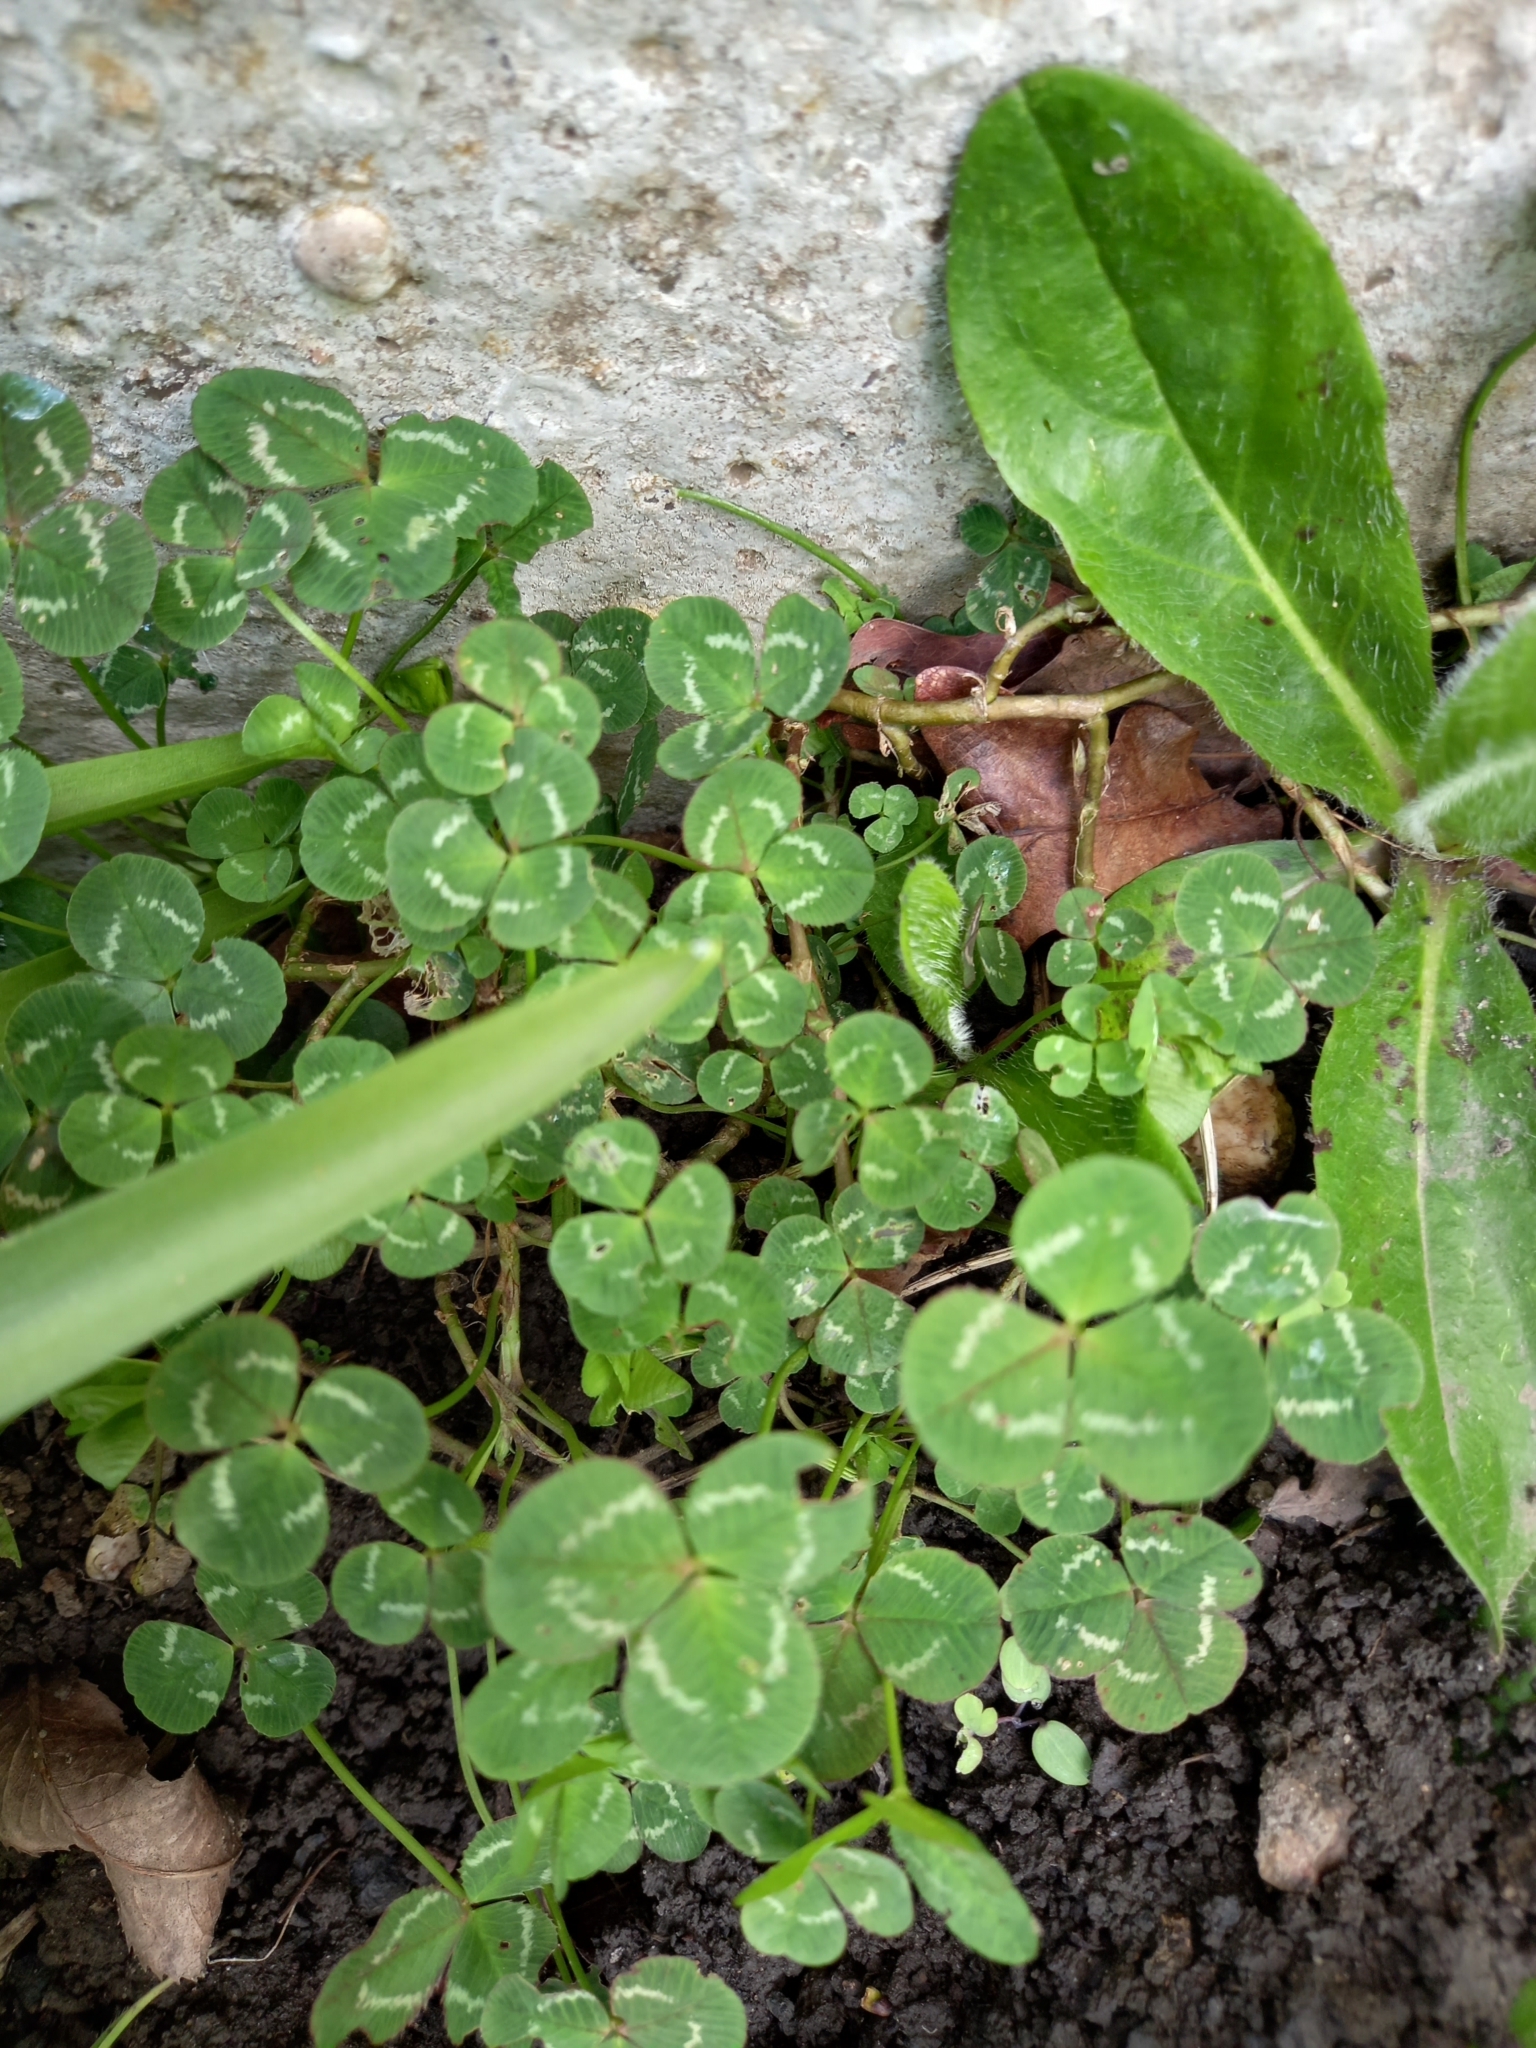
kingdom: Plantae
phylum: Tracheophyta
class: Magnoliopsida
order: Fabales
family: Fabaceae
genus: Trifolium
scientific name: Trifolium repens
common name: White clover
